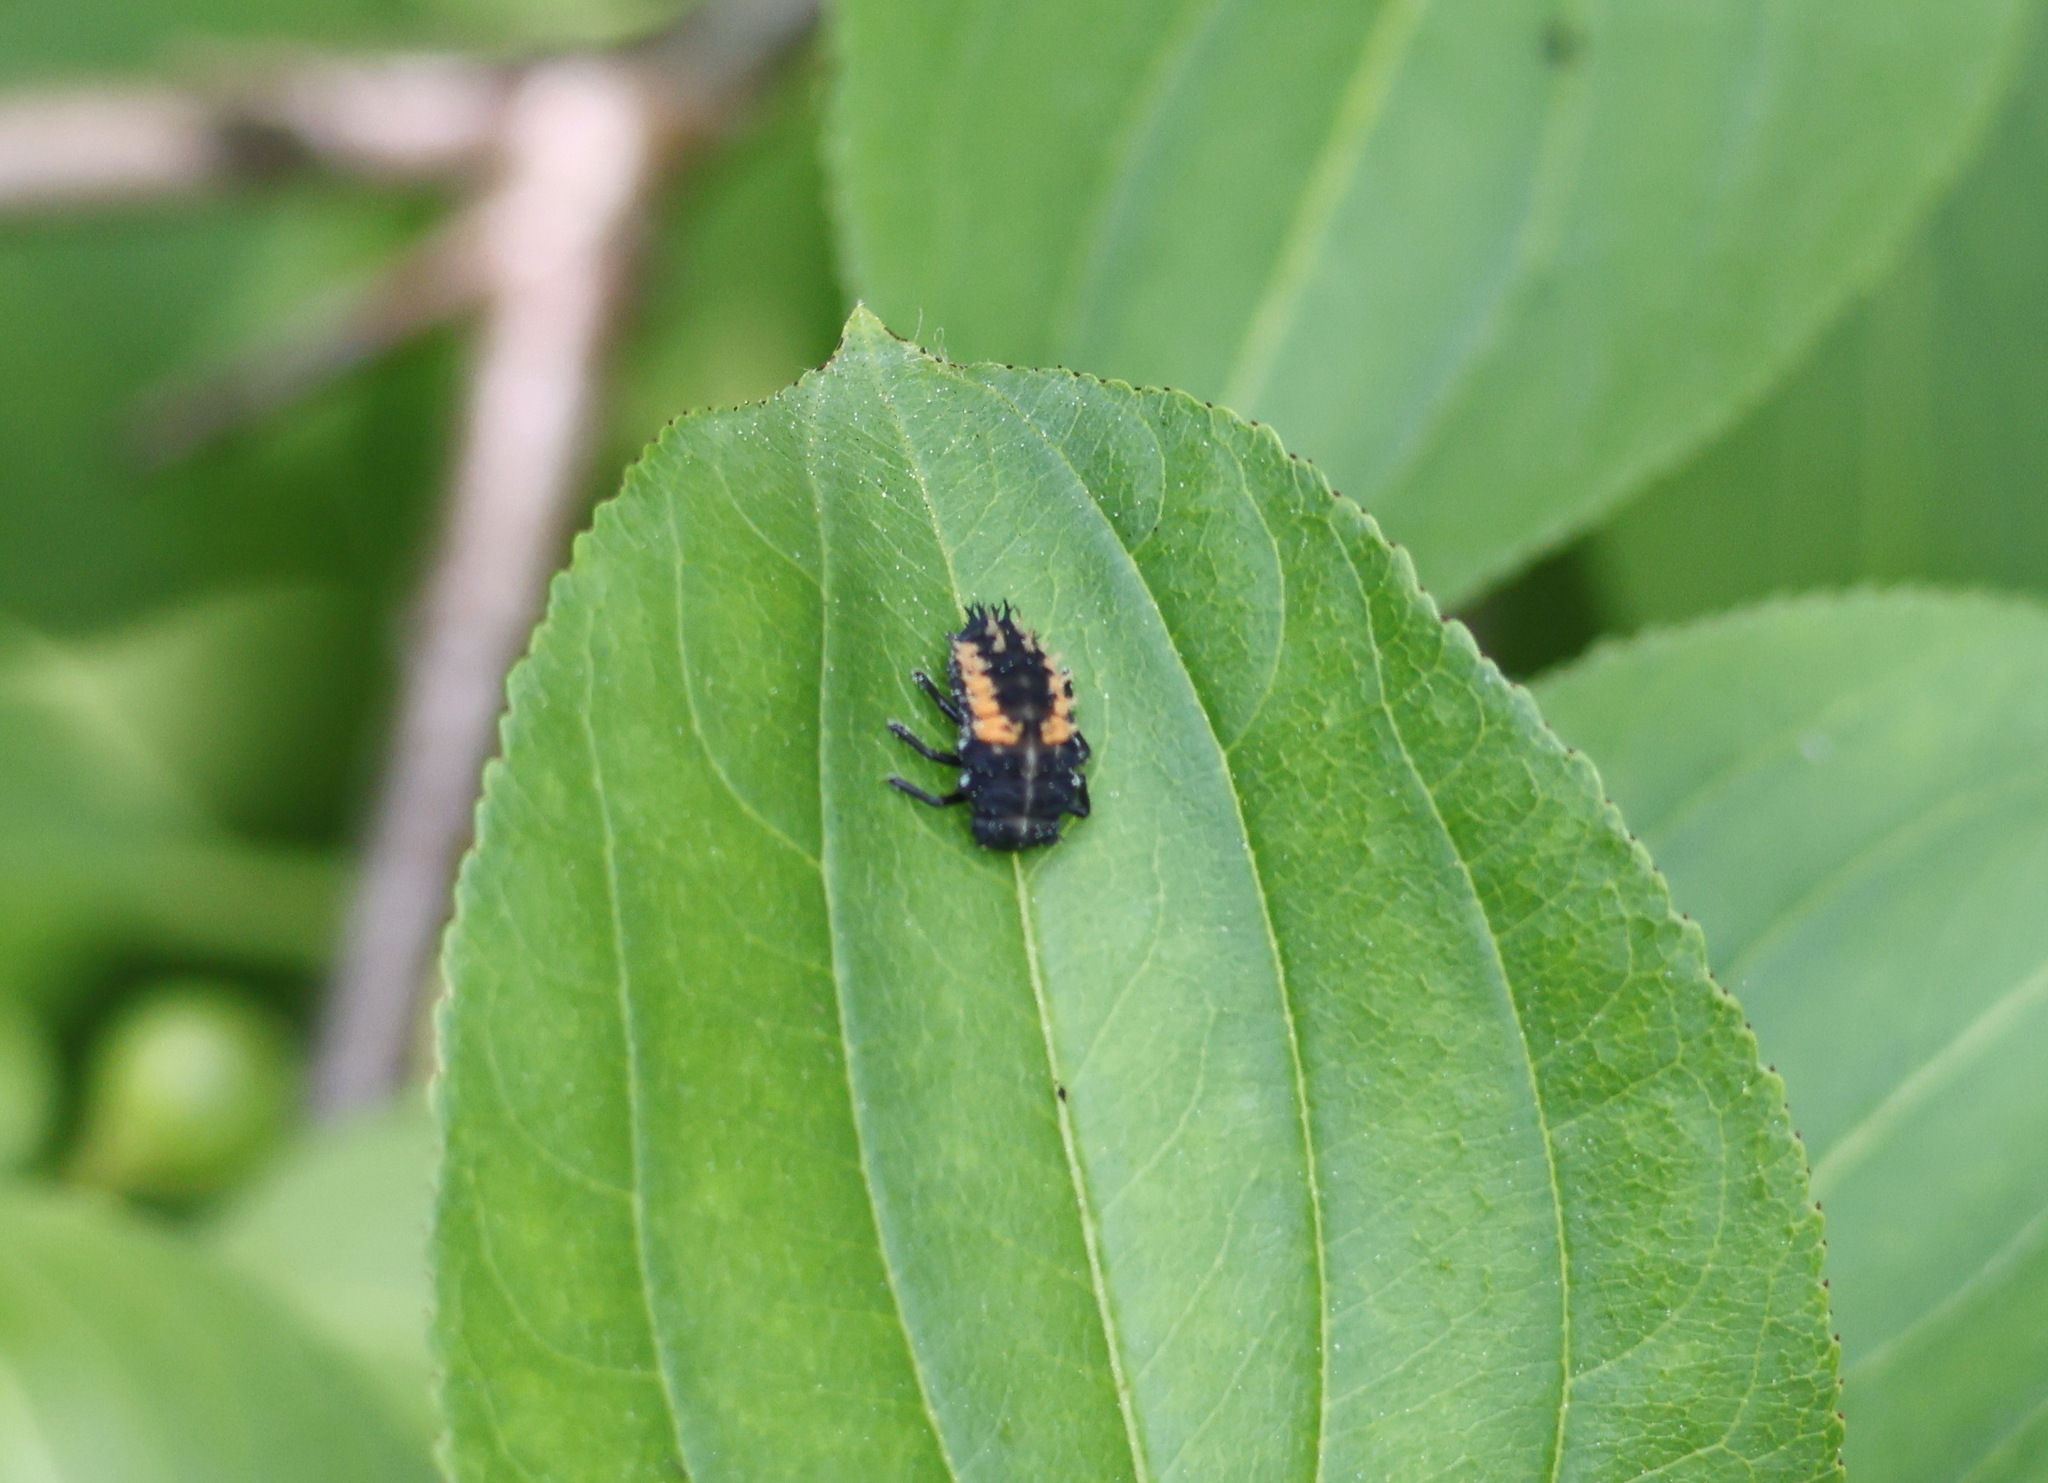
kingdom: Animalia
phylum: Arthropoda
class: Insecta
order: Coleoptera
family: Coccinellidae
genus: Harmonia
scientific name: Harmonia axyridis
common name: Harlequin ladybird
